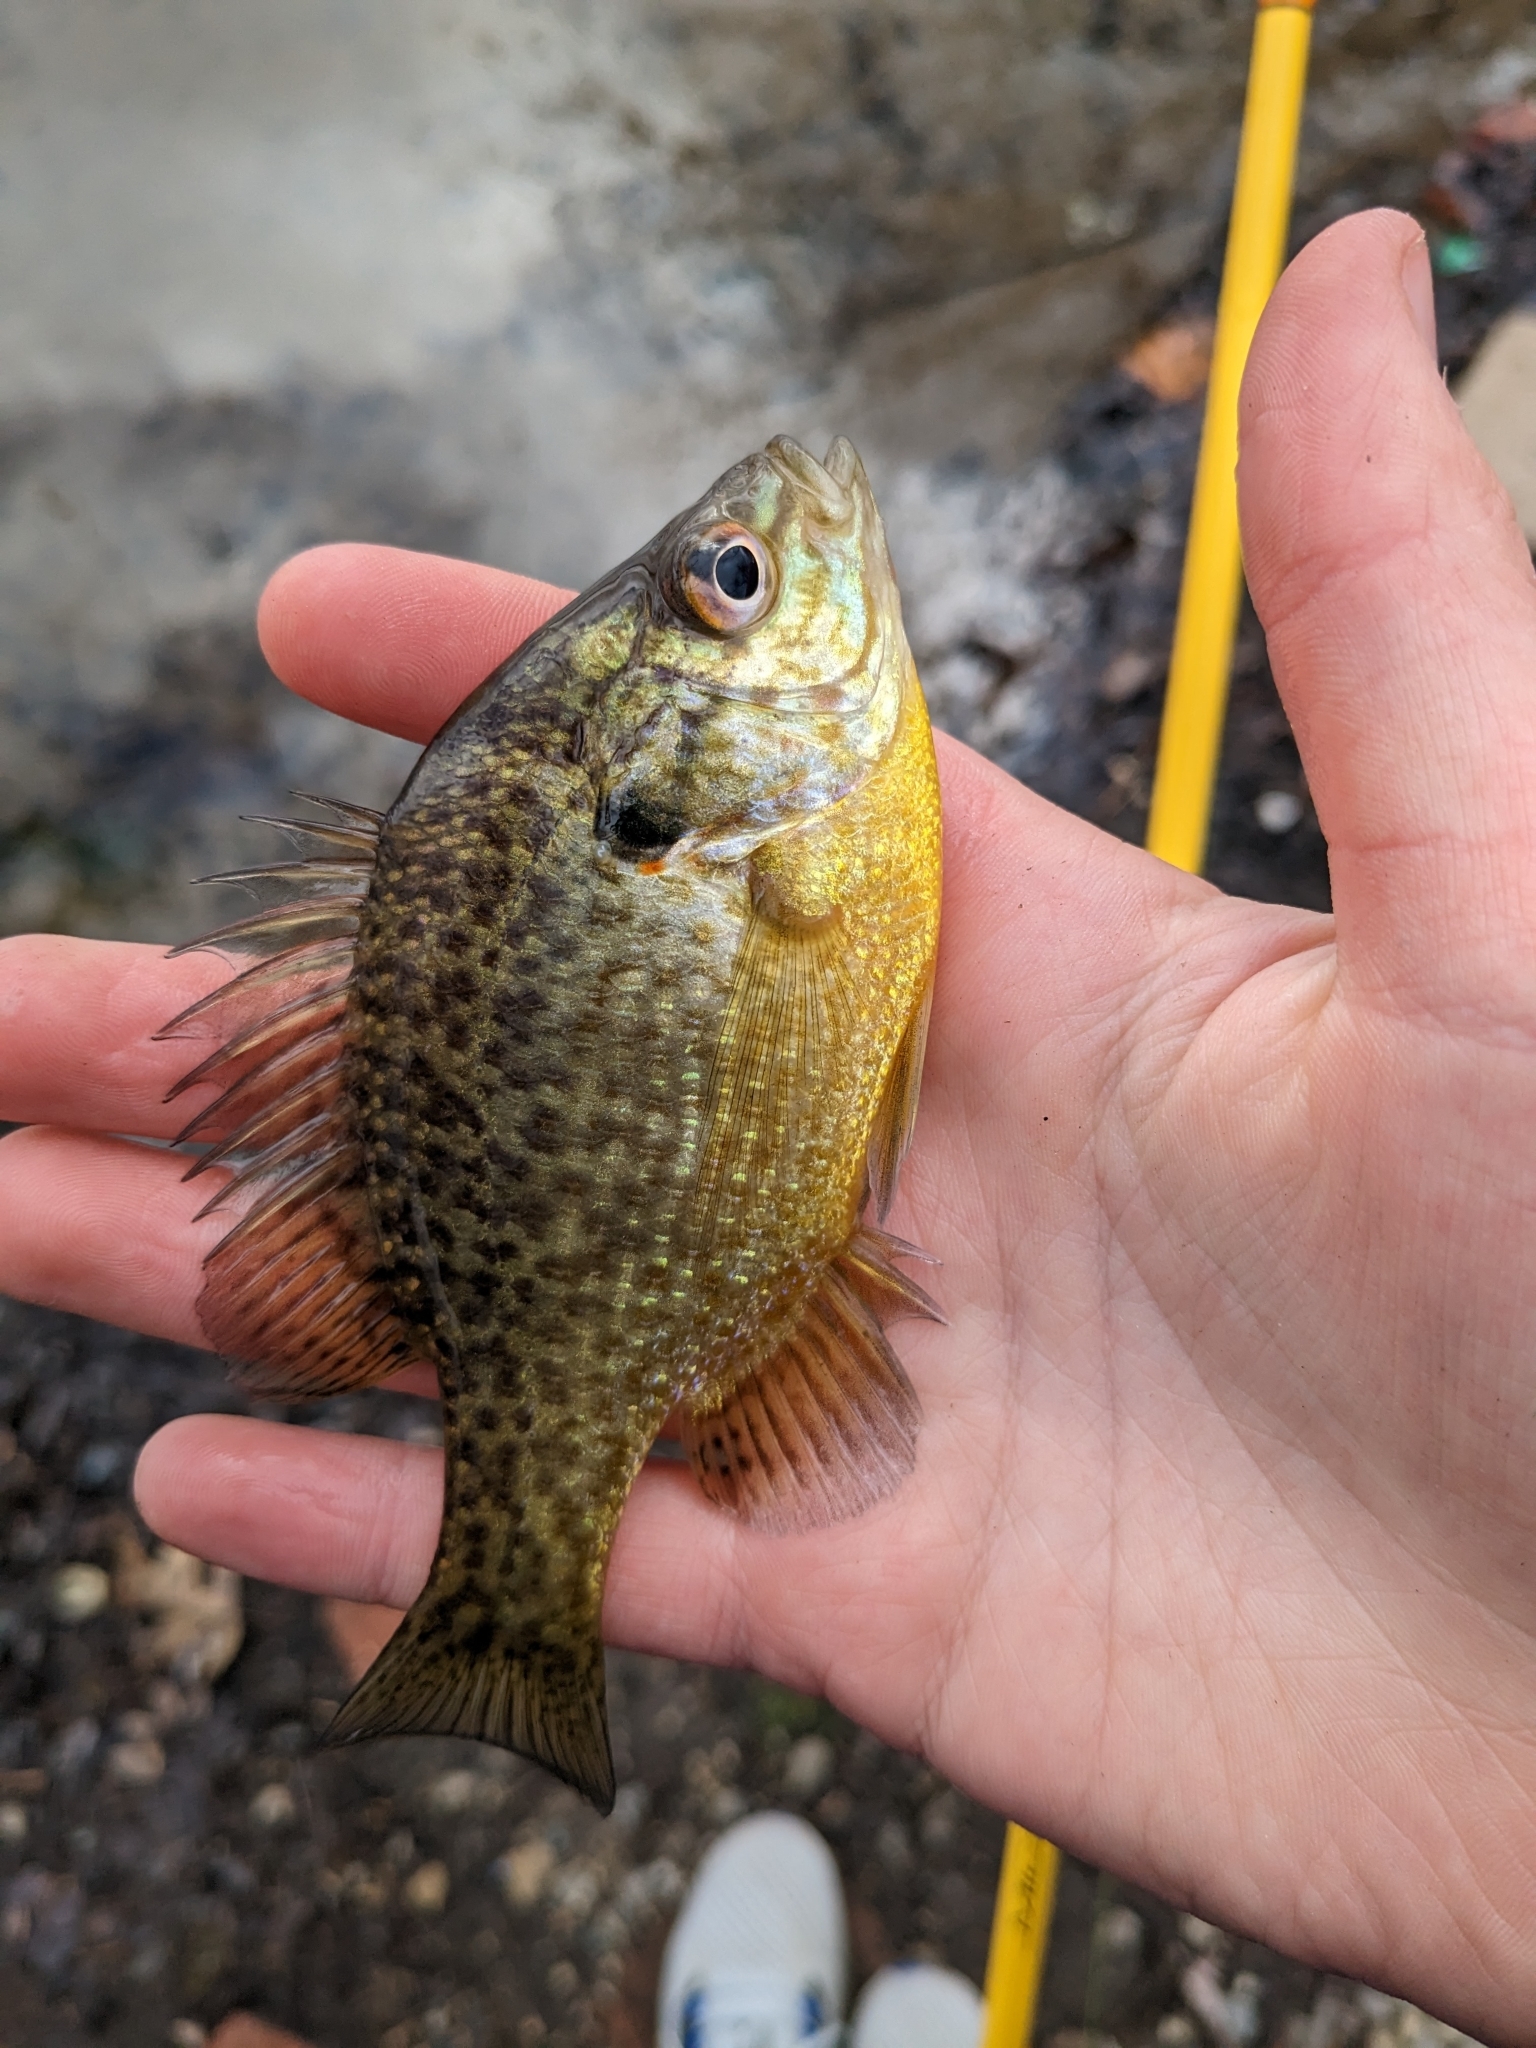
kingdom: Animalia
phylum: Chordata
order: Perciformes
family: Centrarchidae
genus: Lepomis
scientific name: Lepomis
